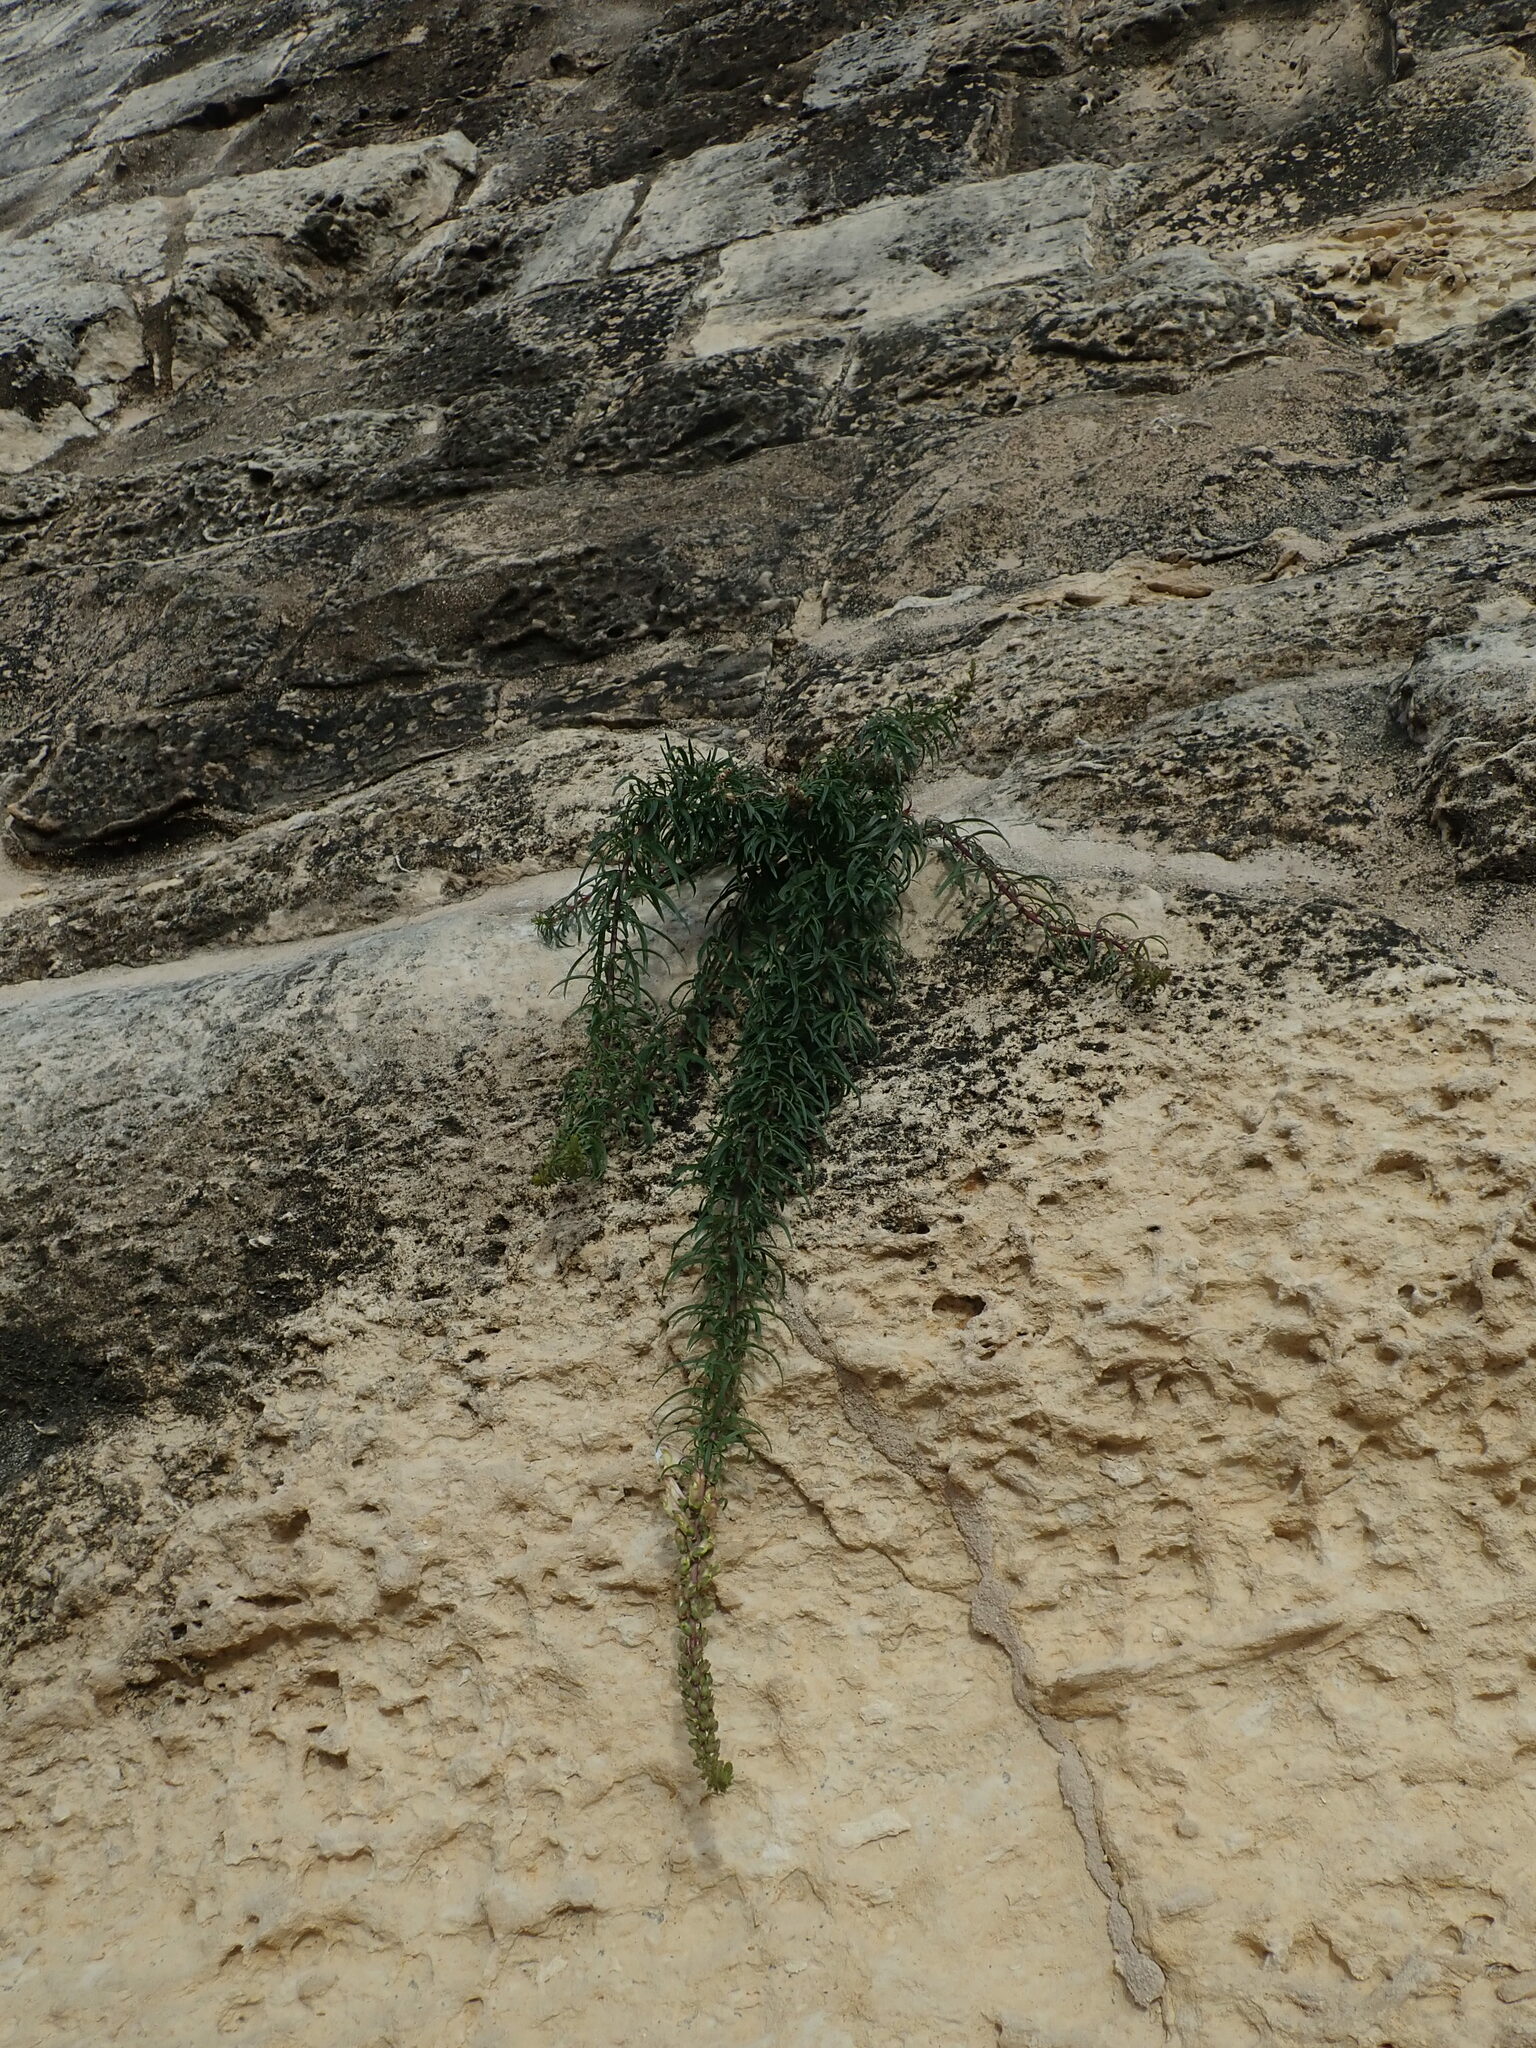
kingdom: Plantae
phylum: Tracheophyta
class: Magnoliopsida
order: Lamiales
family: Plantaginaceae
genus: Antirrhinum
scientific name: Antirrhinum siculum
